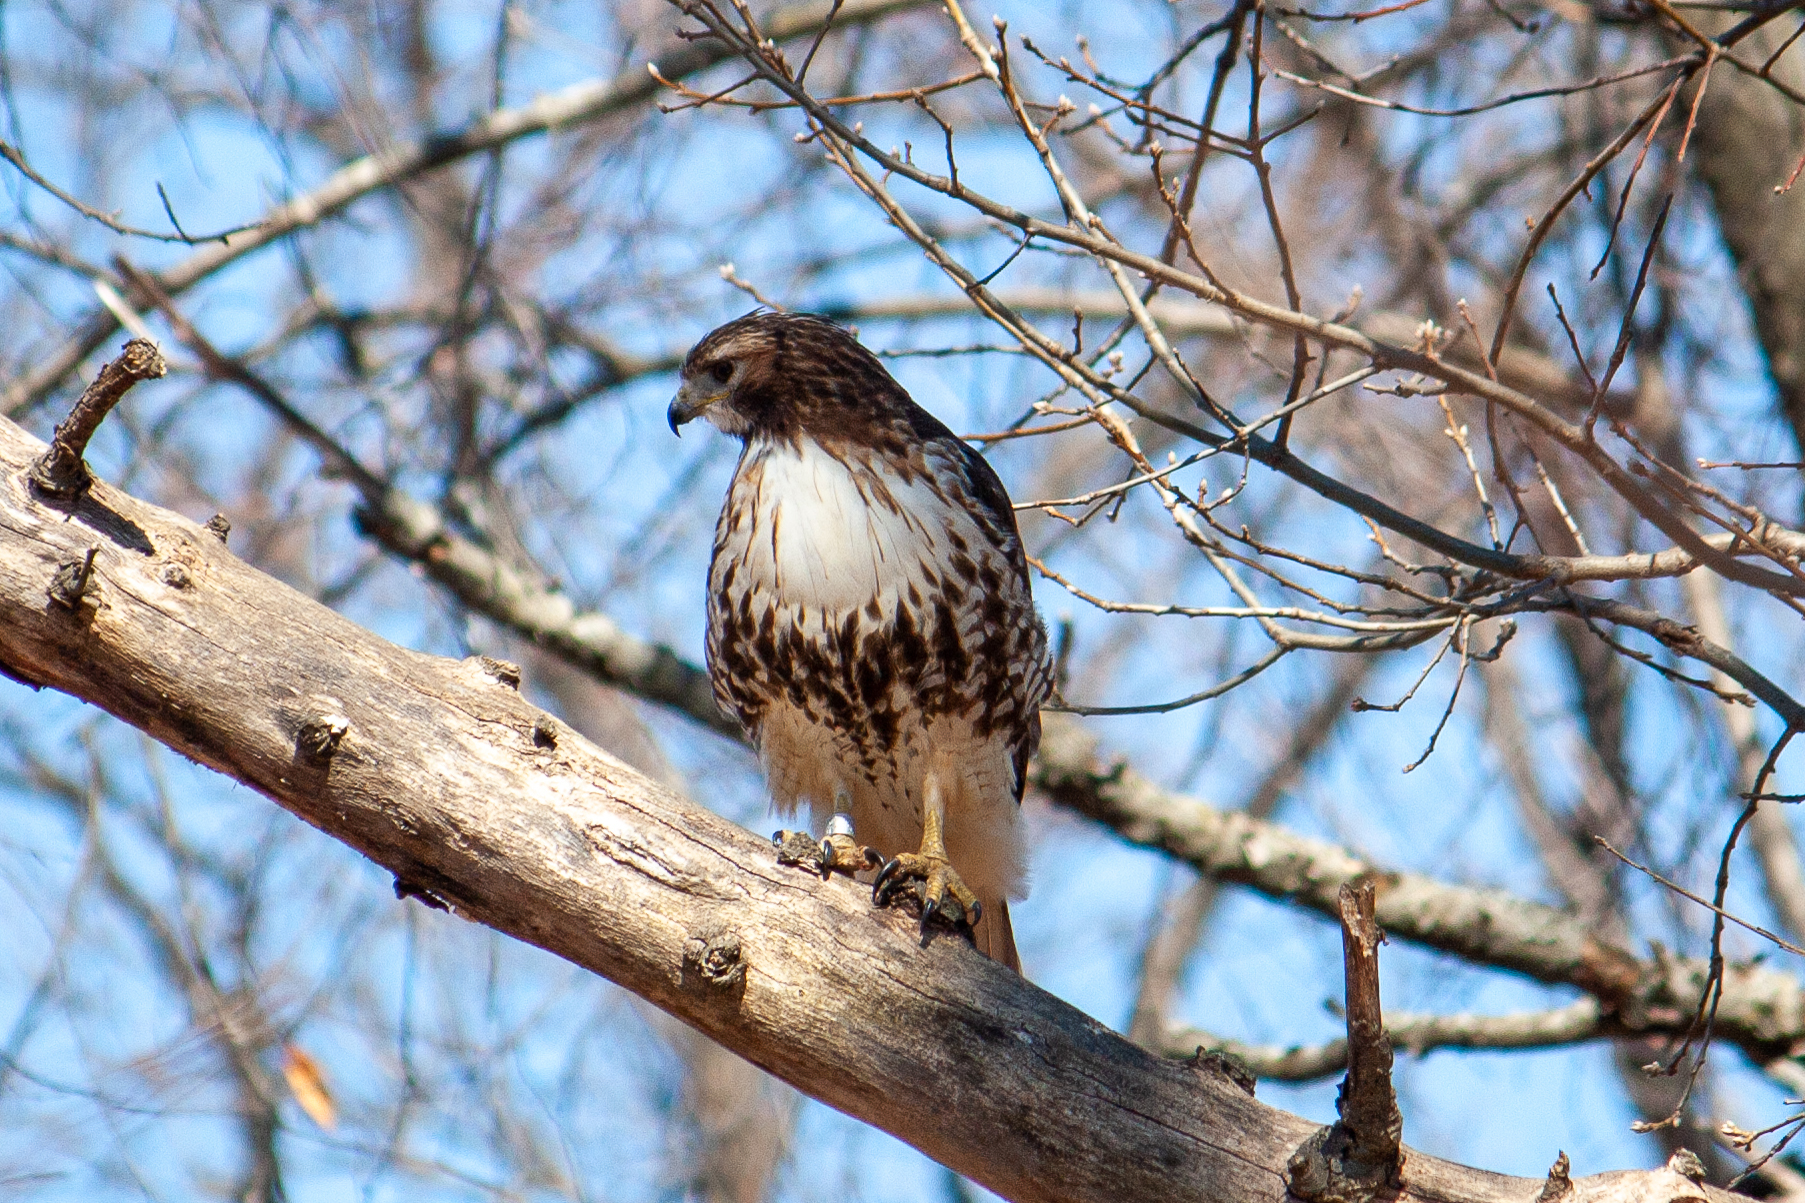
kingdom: Animalia
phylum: Chordata
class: Aves
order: Accipitriformes
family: Accipitridae
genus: Buteo
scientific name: Buteo jamaicensis
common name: Red-tailed hawk
